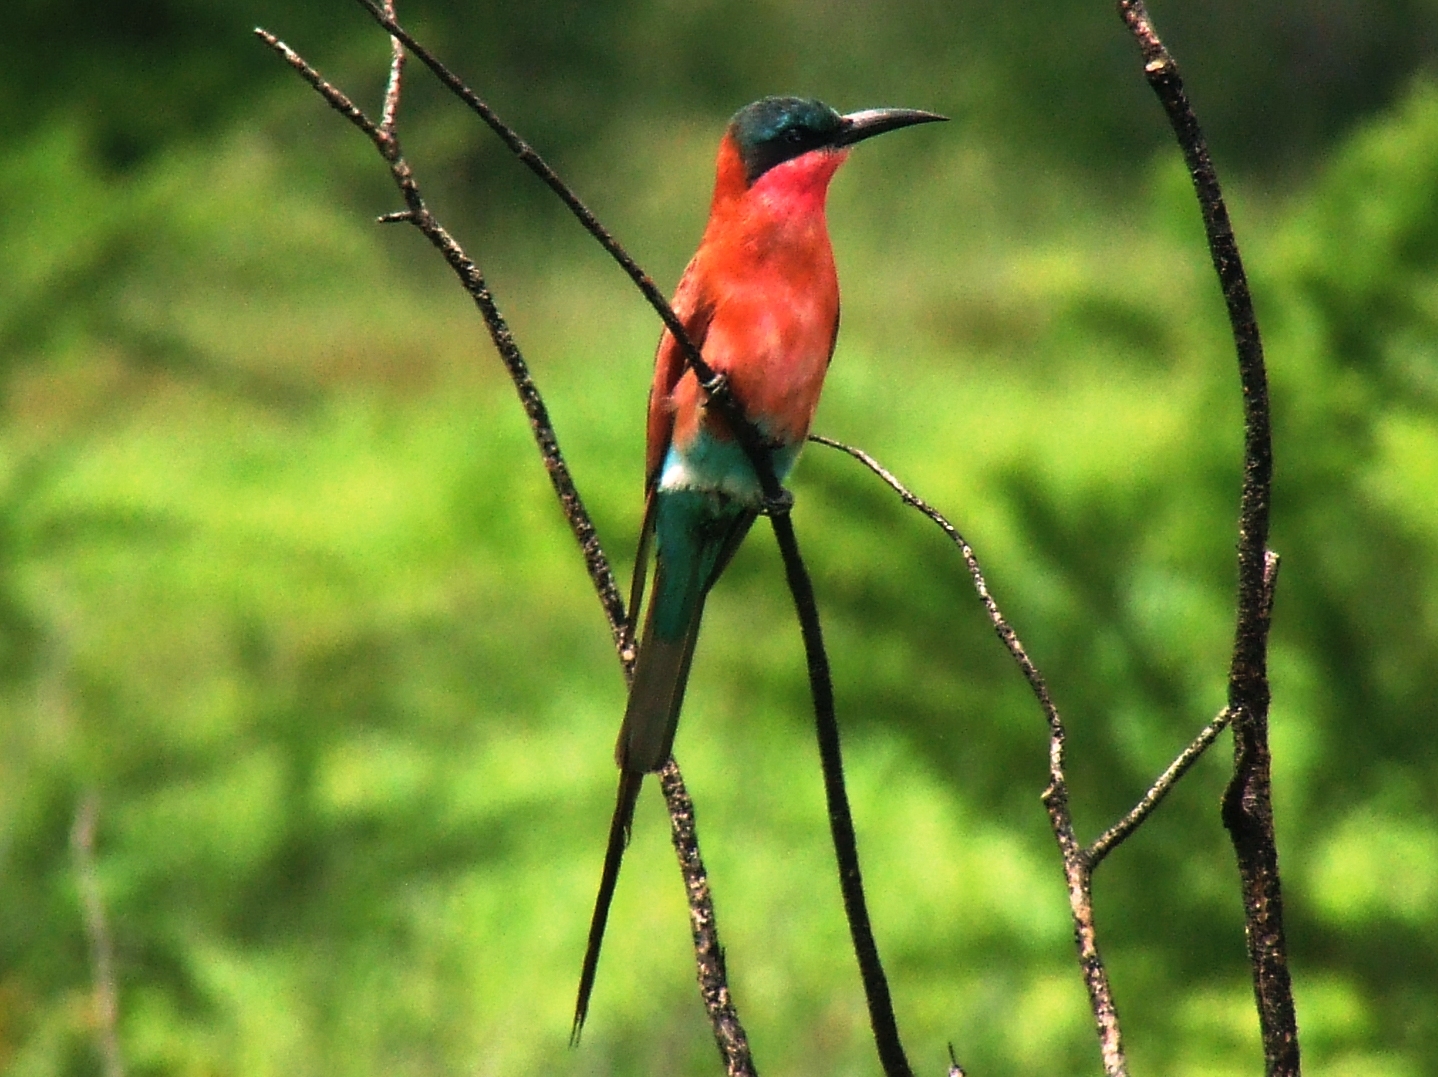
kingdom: Animalia
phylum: Chordata
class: Aves
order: Coraciiformes
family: Meropidae
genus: Merops
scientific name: Merops nubicoides
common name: Southern carmine bee-eater
